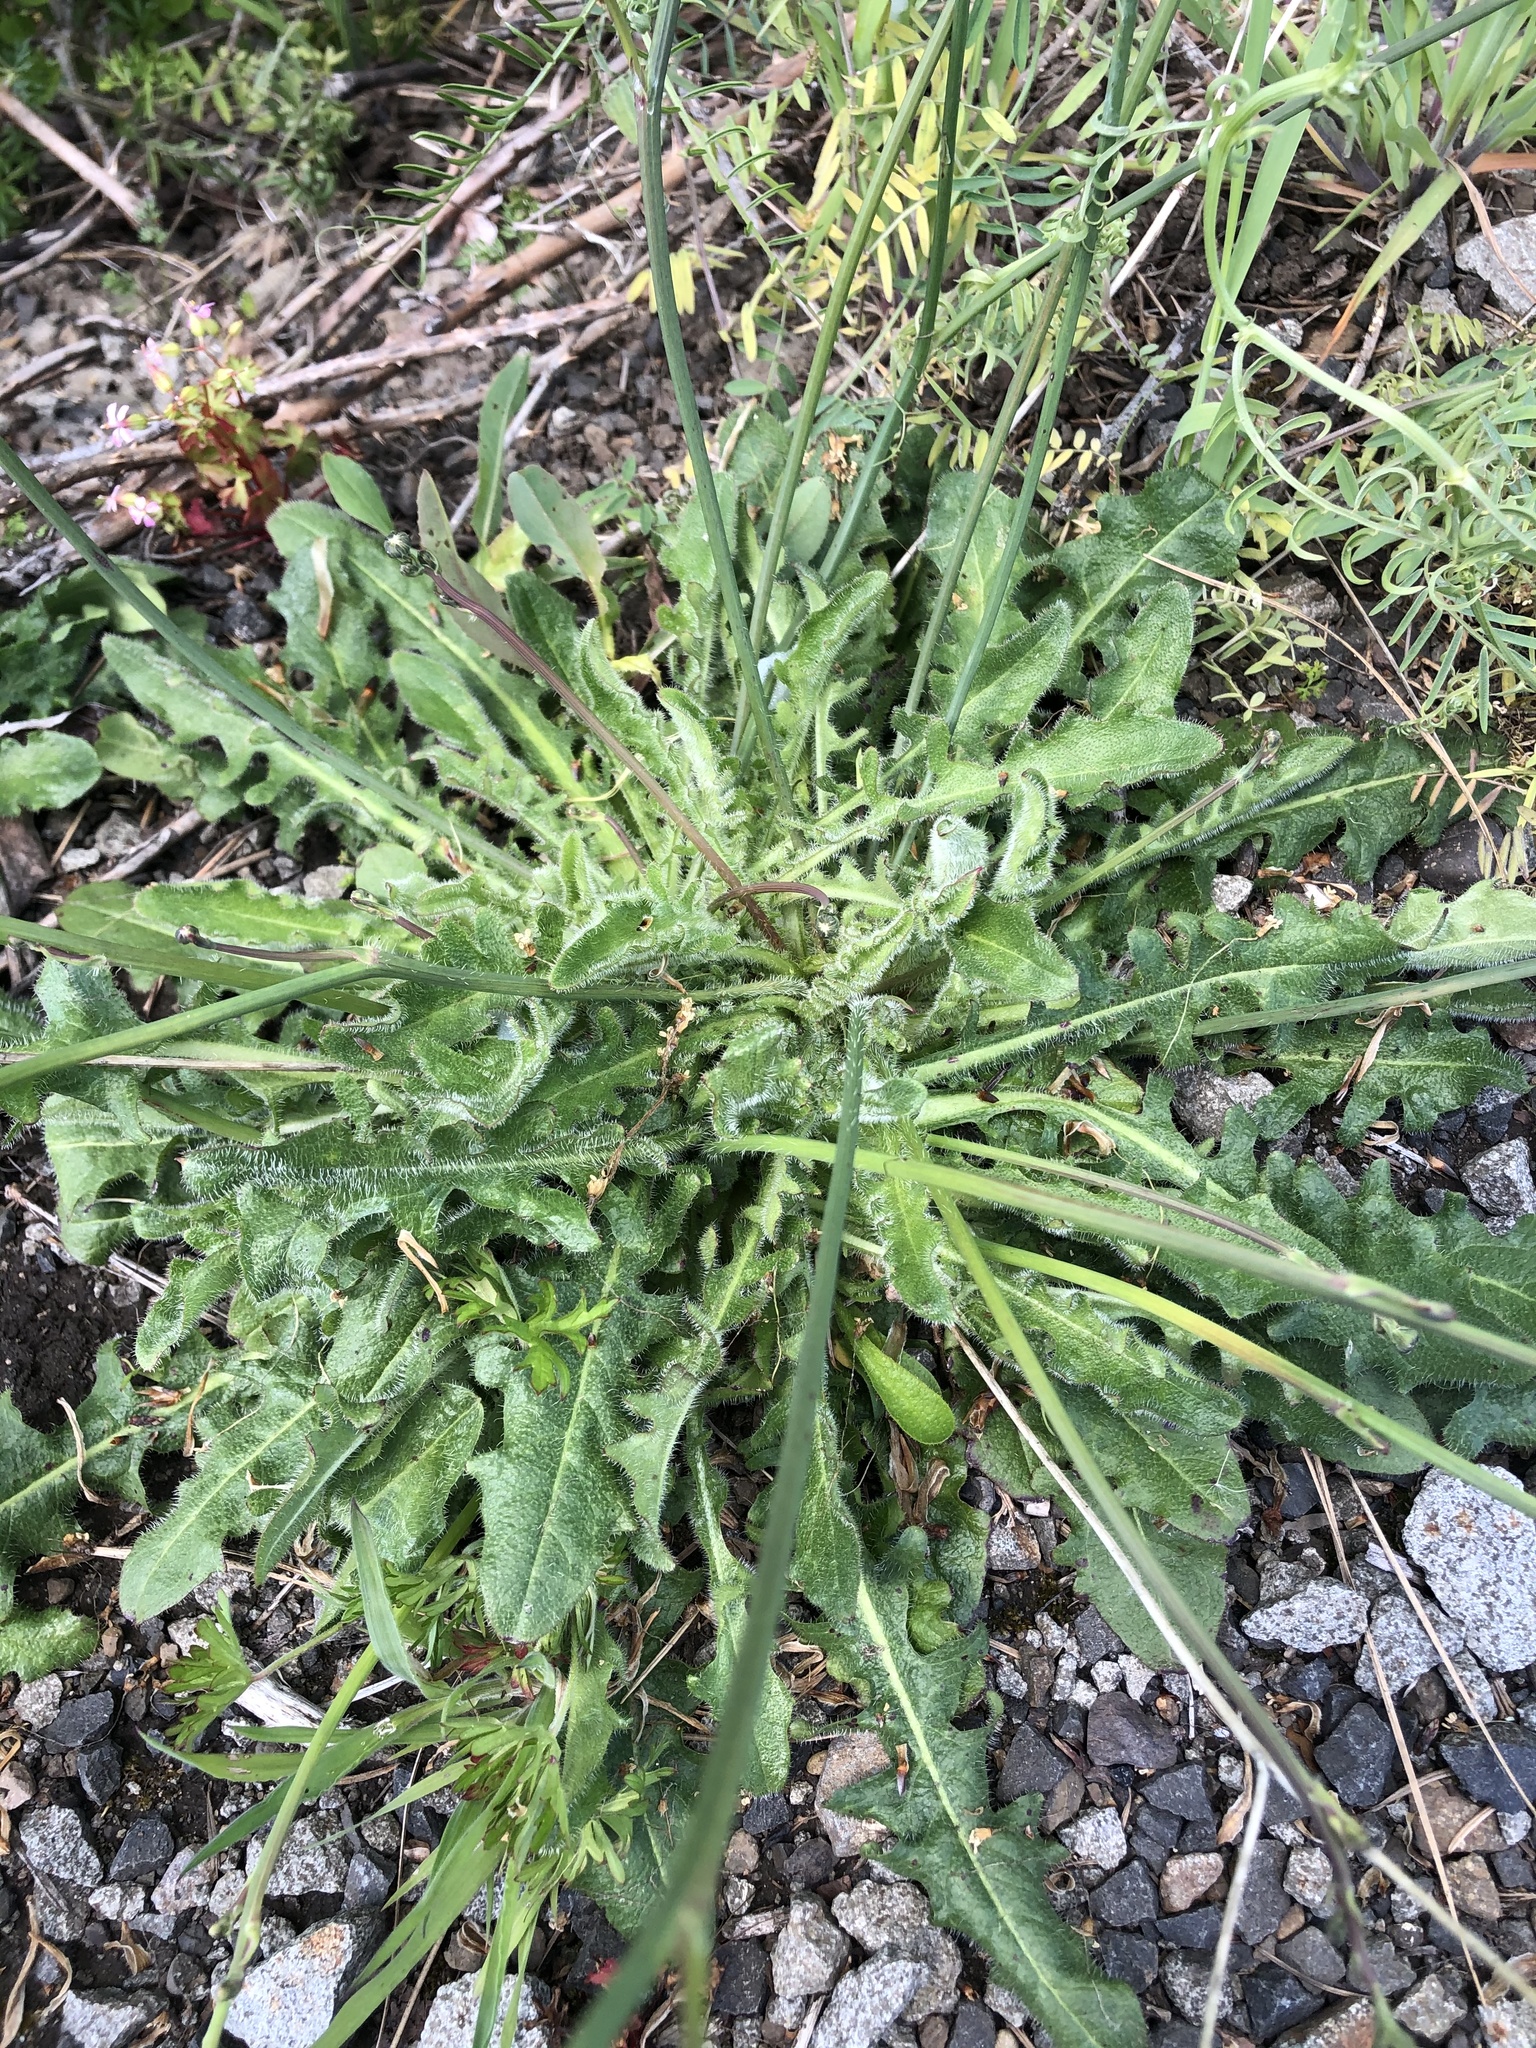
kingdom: Plantae
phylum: Tracheophyta
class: Magnoliopsida
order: Asterales
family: Asteraceae
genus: Hypochaeris
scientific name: Hypochaeris radicata
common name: Flatweed
